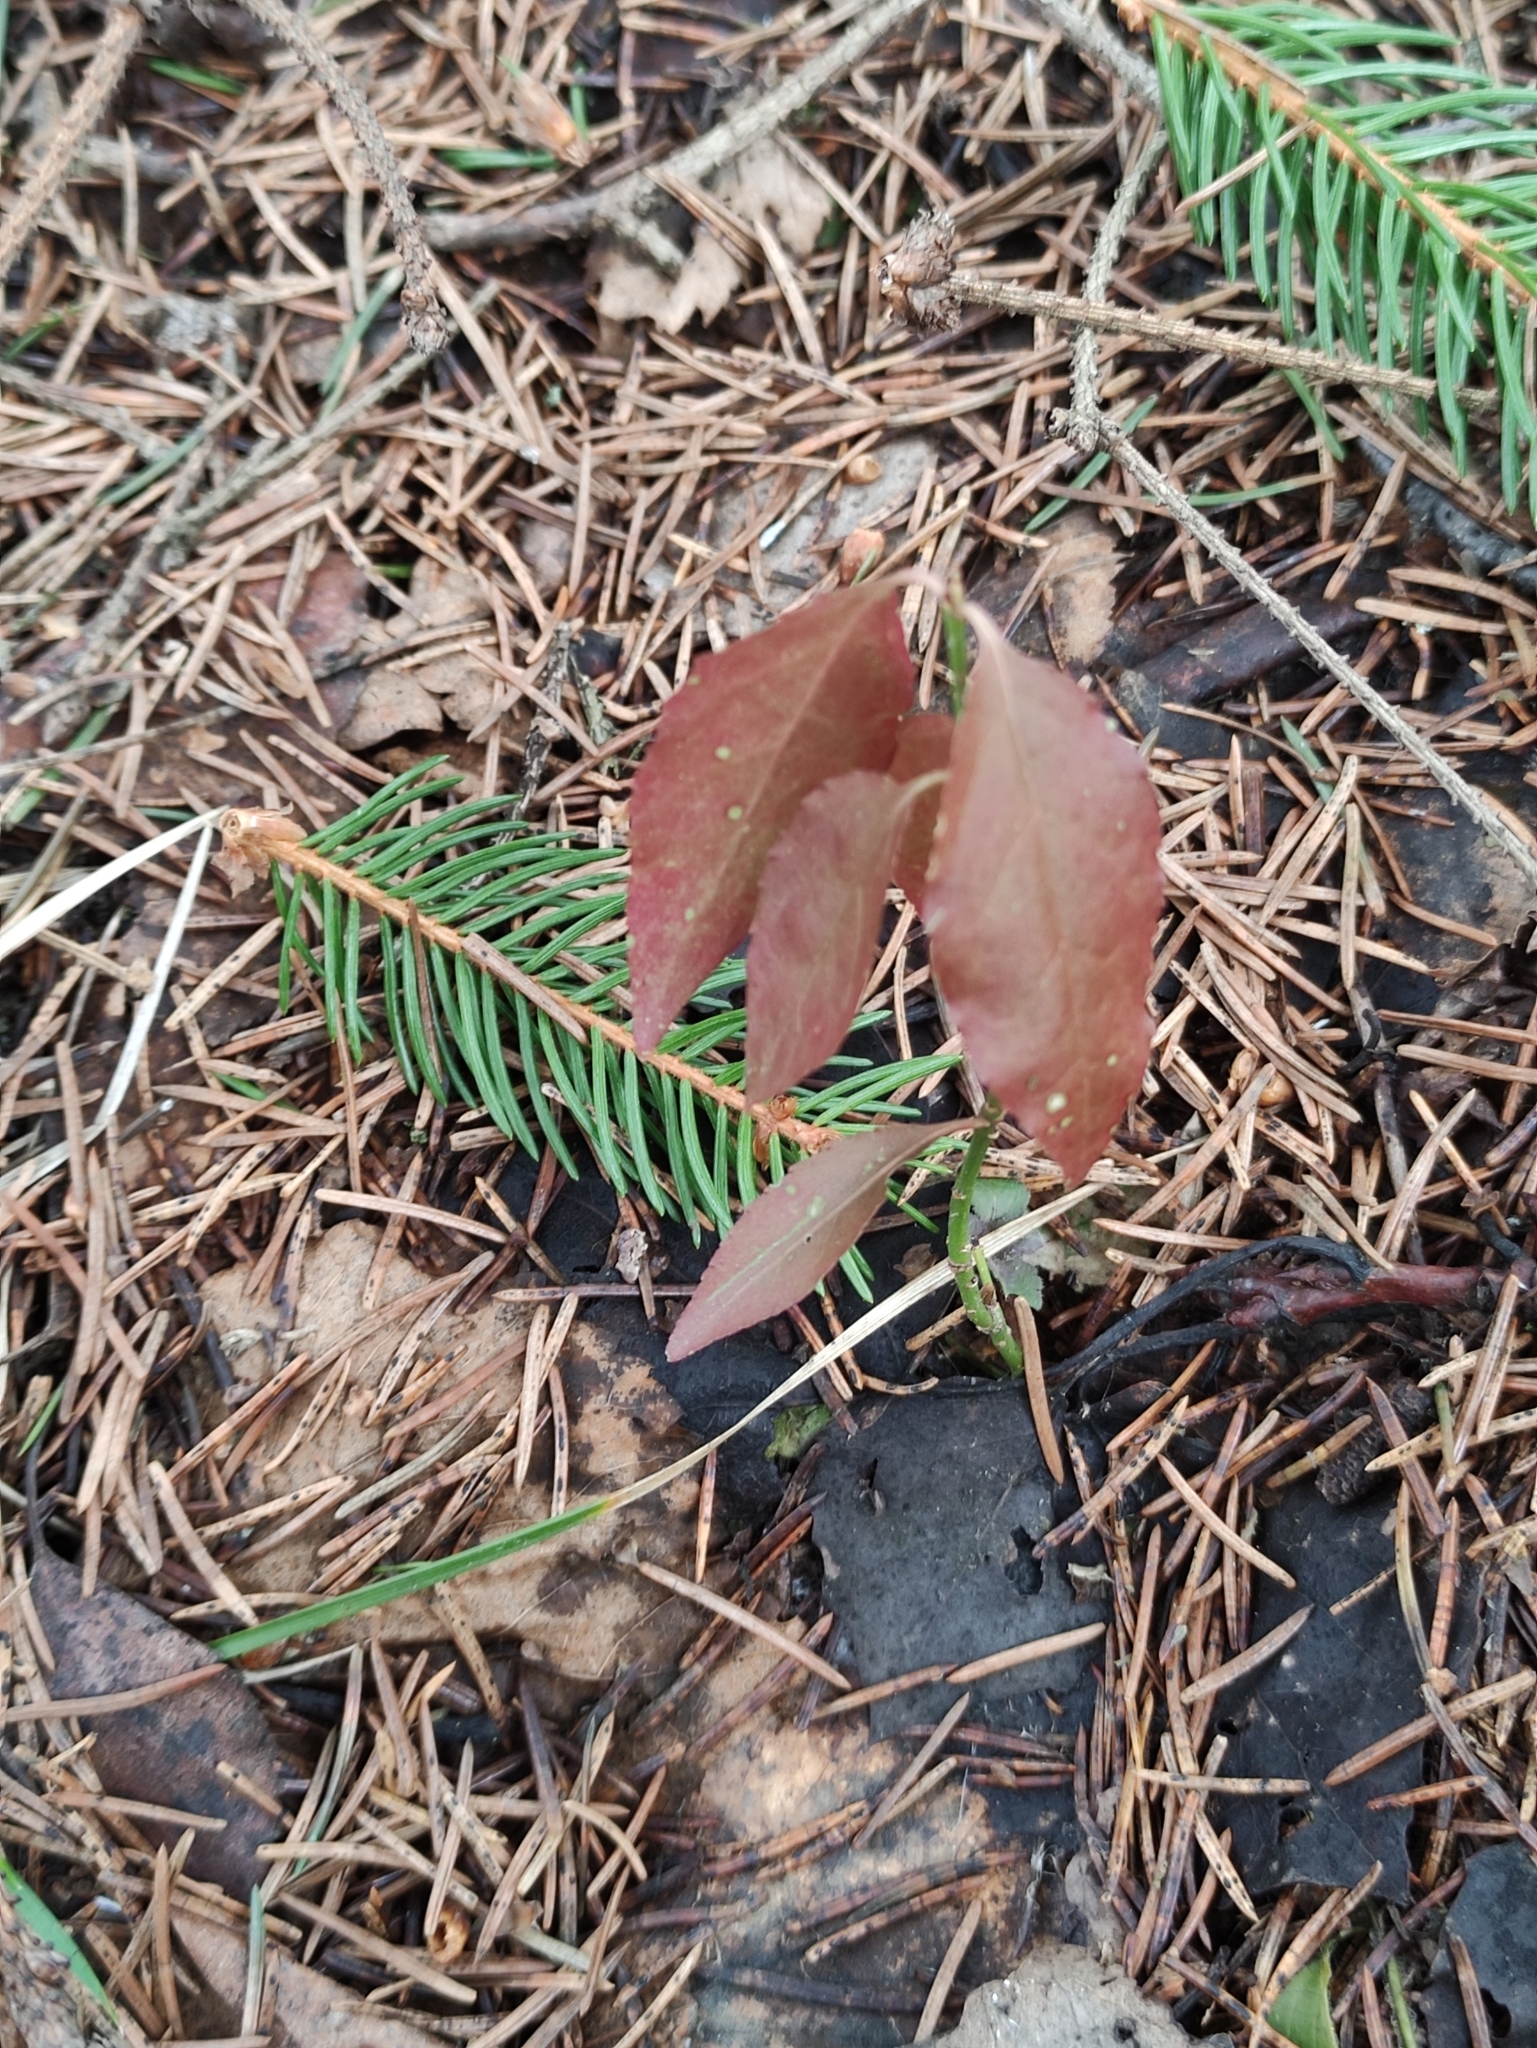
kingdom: Plantae
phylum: Tracheophyta
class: Magnoliopsida
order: Celastrales
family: Celastraceae
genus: Euonymus
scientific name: Euonymus europaeus
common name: Spindle
